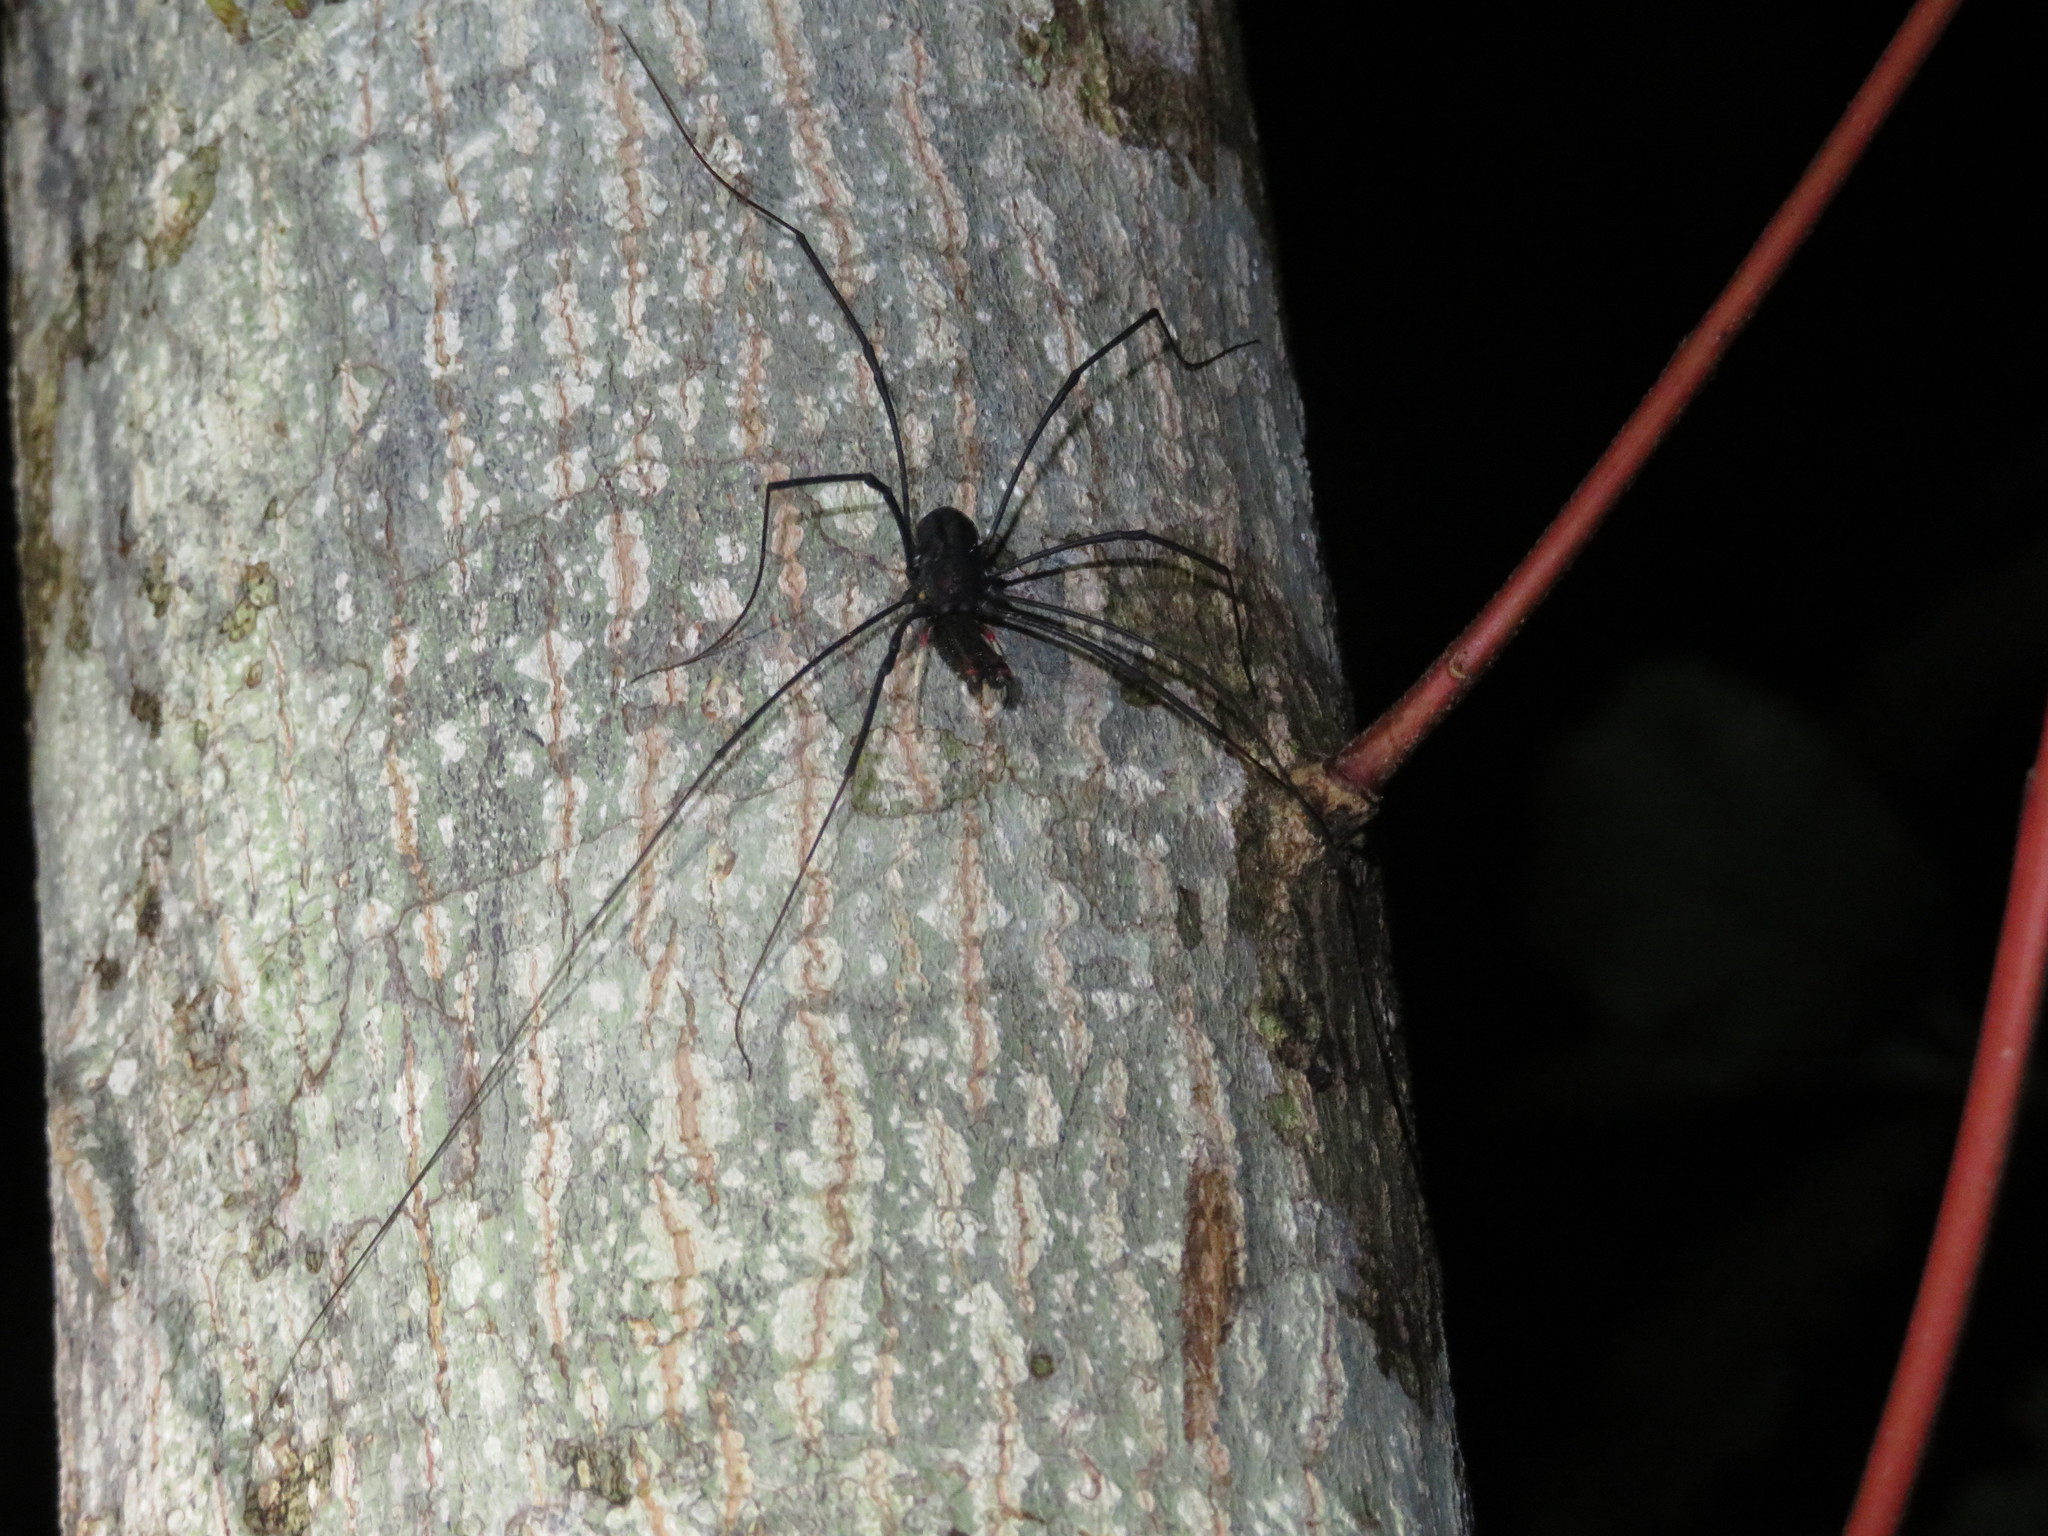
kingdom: Animalia
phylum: Arthropoda
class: Arachnida
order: Opiliones
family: Neopilionidae
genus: Forsteropsalis
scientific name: Forsteropsalis inconstans
